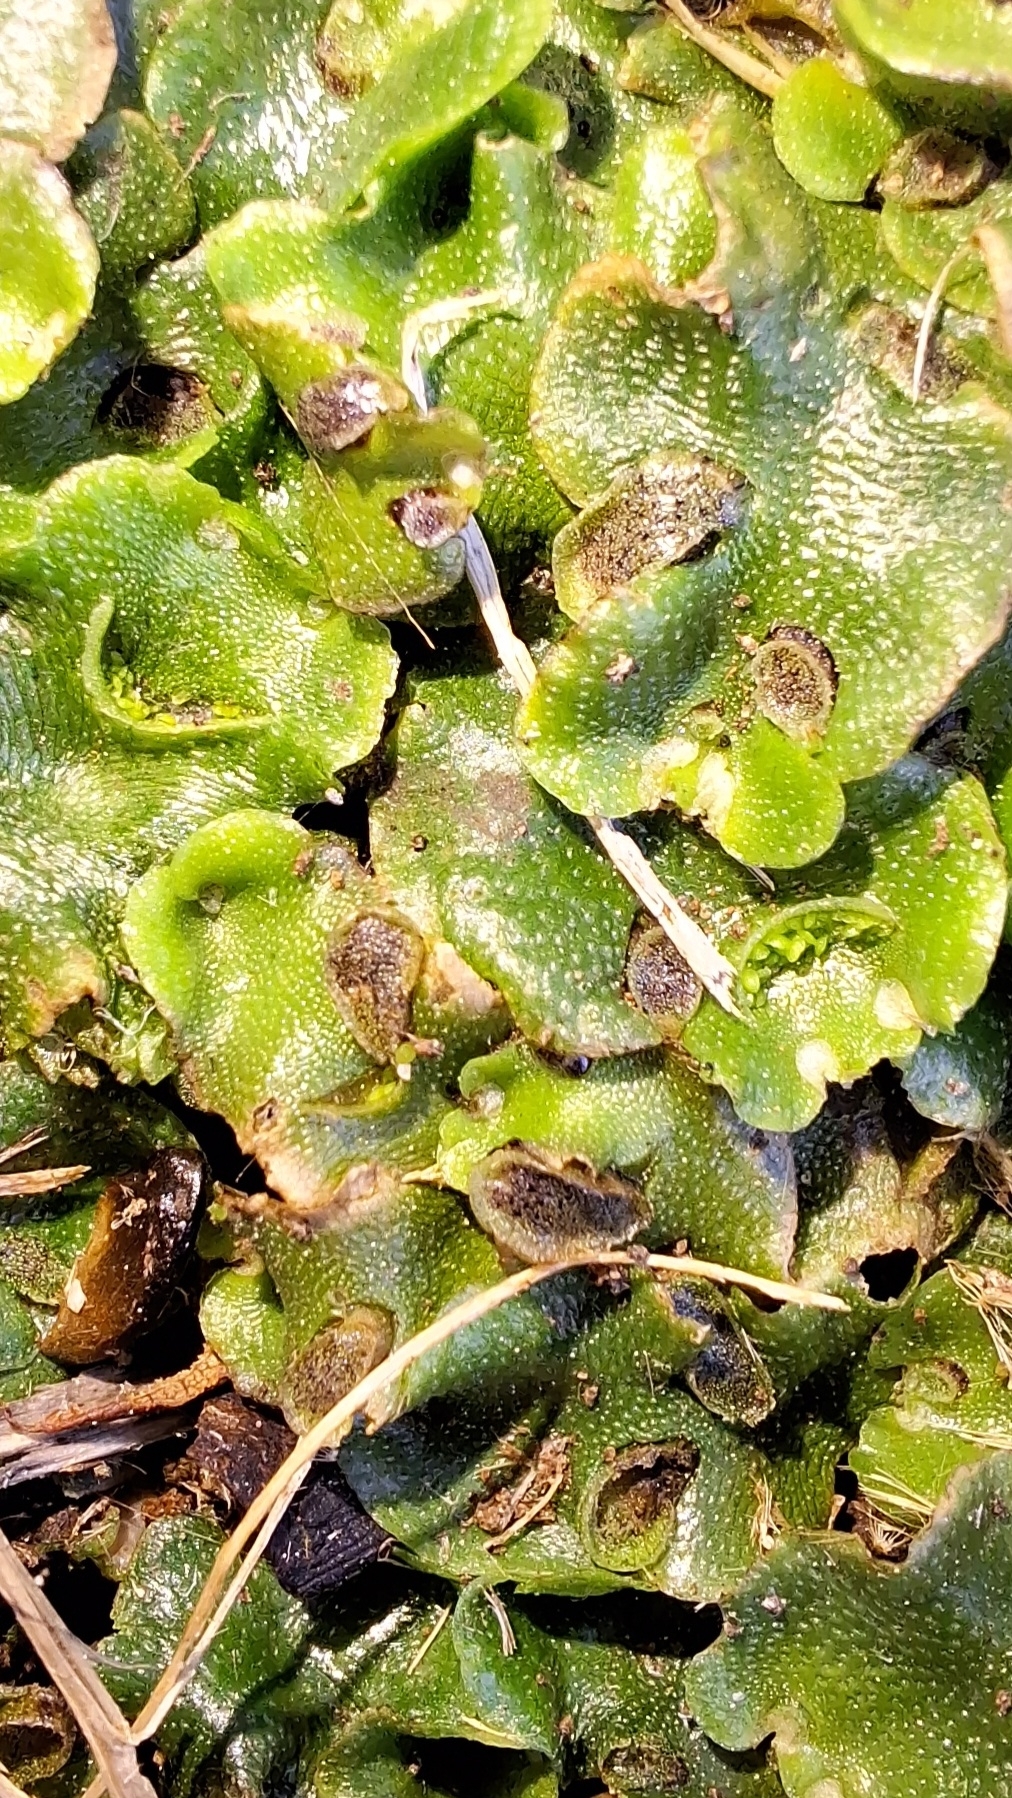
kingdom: Plantae
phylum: Marchantiophyta
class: Marchantiopsida
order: Lunulariales
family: Lunulariaceae
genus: Lunularia
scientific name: Lunularia cruciata
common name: Crescent-cup liverwort
